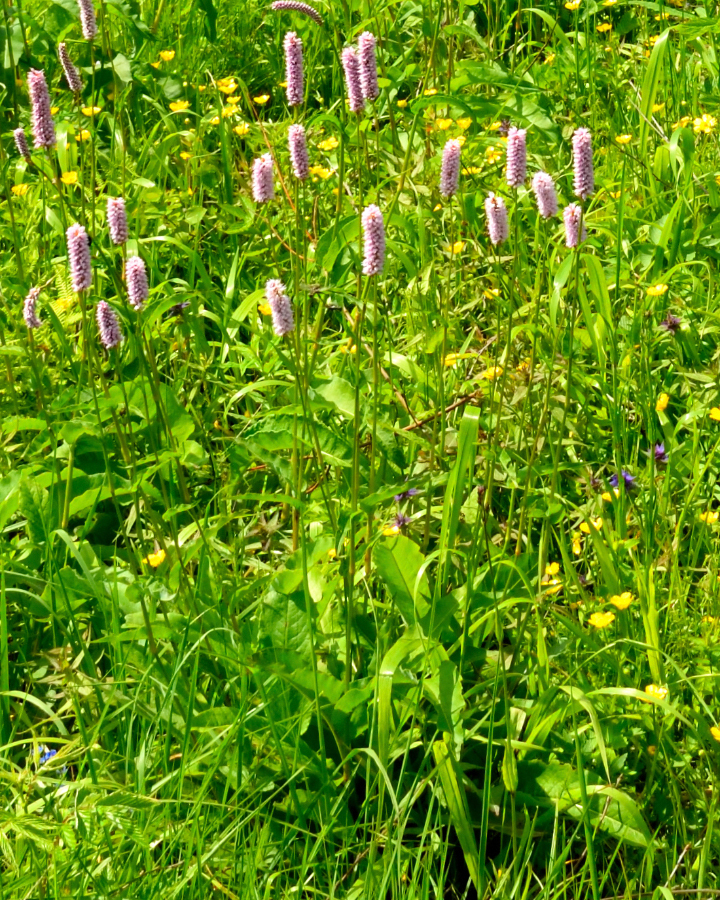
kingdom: Plantae
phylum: Tracheophyta
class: Magnoliopsida
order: Caryophyllales
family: Polygonaceae
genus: Bistorta
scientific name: Bistorta officinalis
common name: Common bistort
